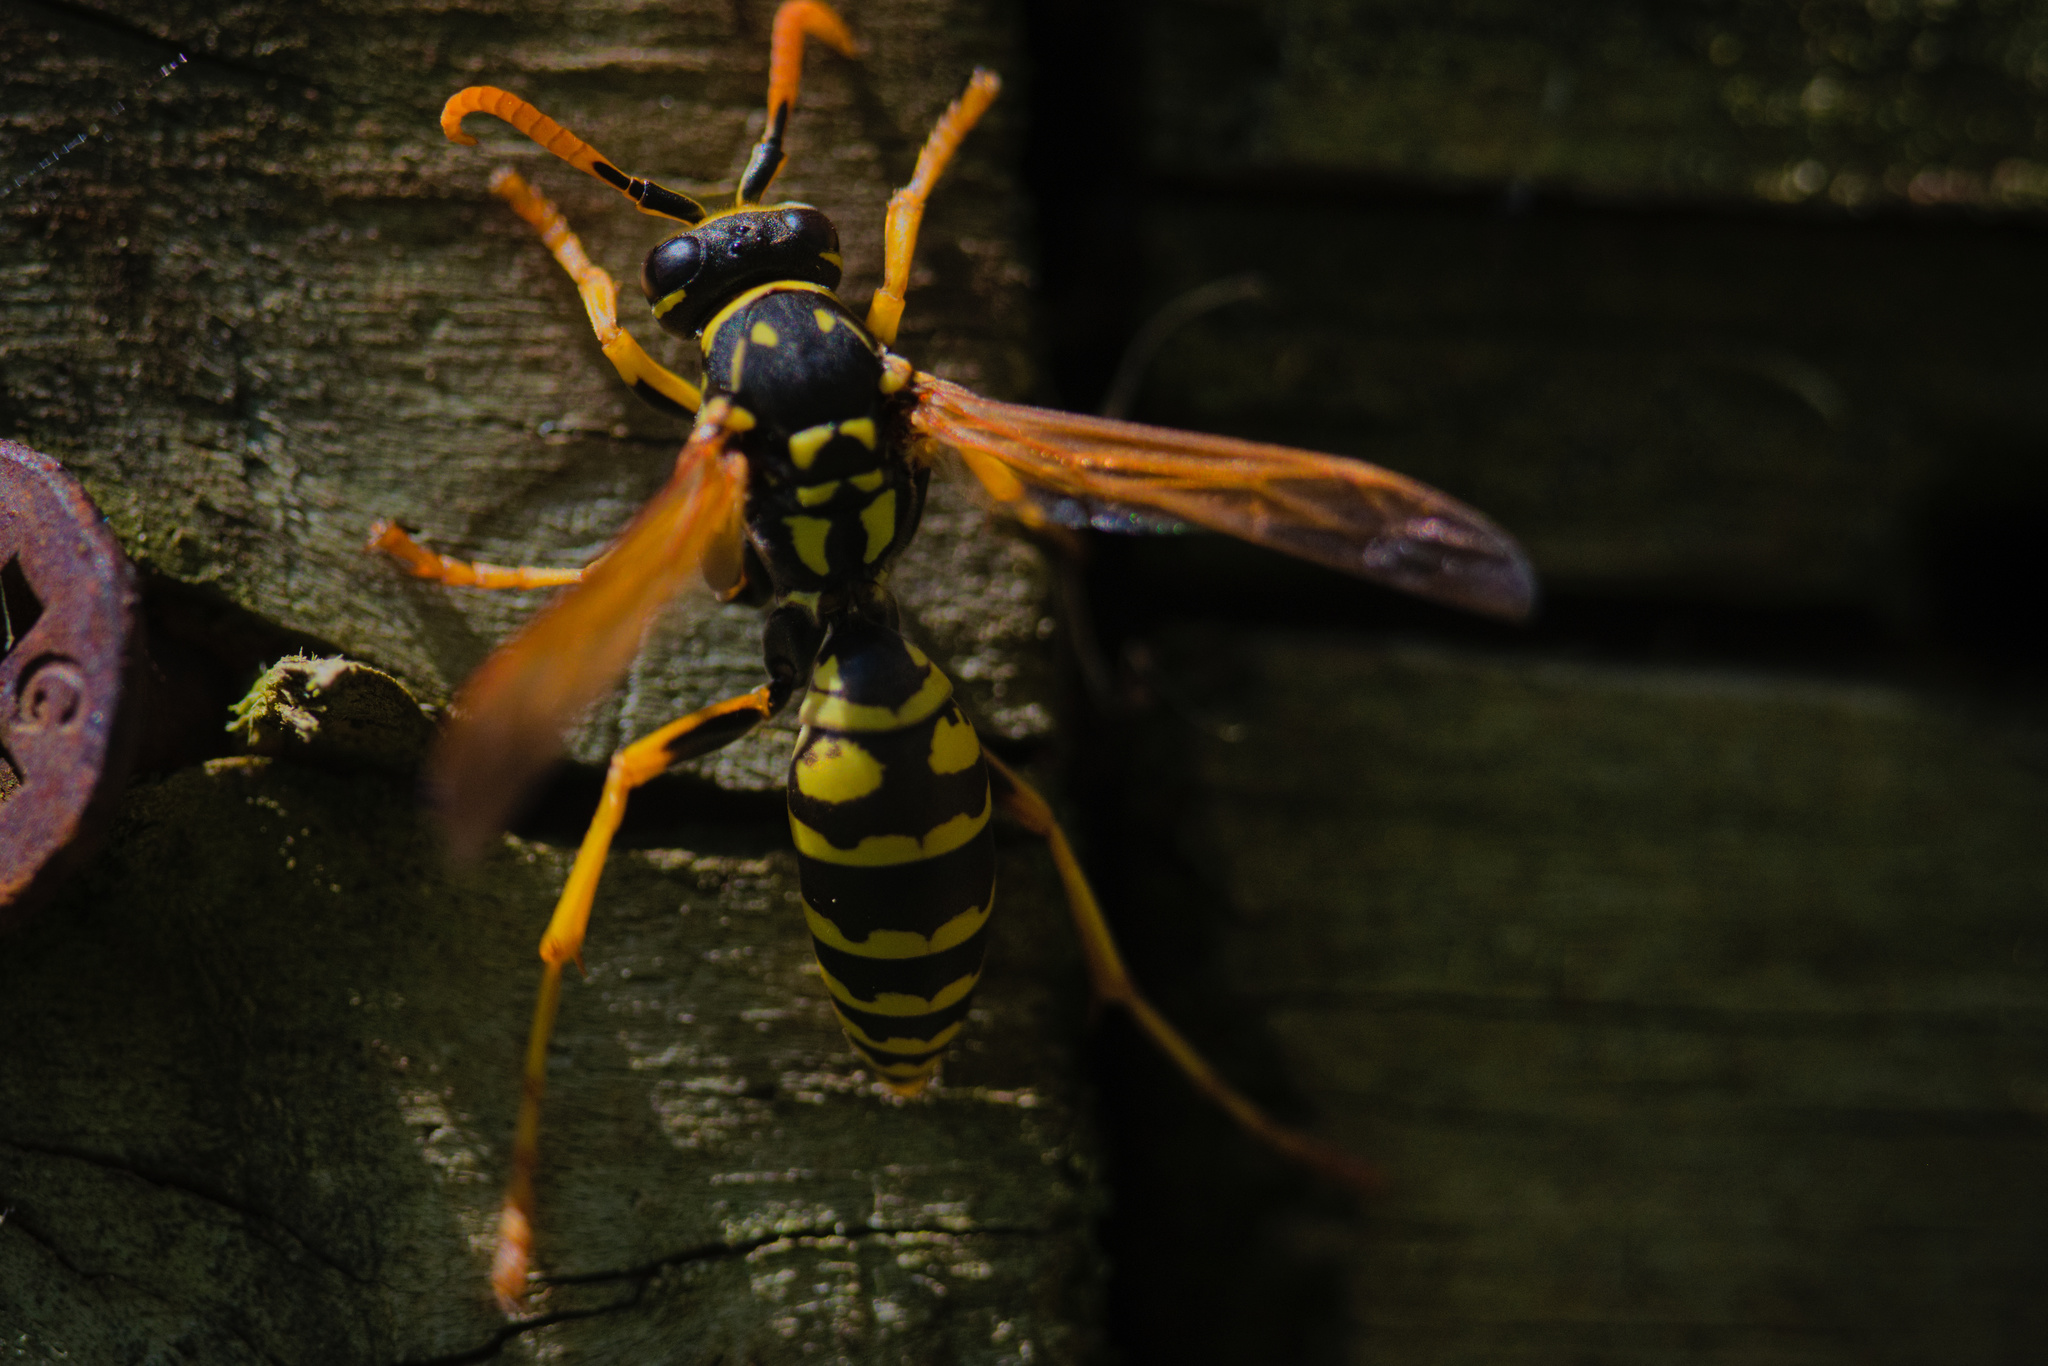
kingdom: Animalia
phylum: Arthropoda
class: Insecta
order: Hymenoptera
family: Eumenidae
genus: Polistes
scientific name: Polistes dominula
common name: Paper wasp
